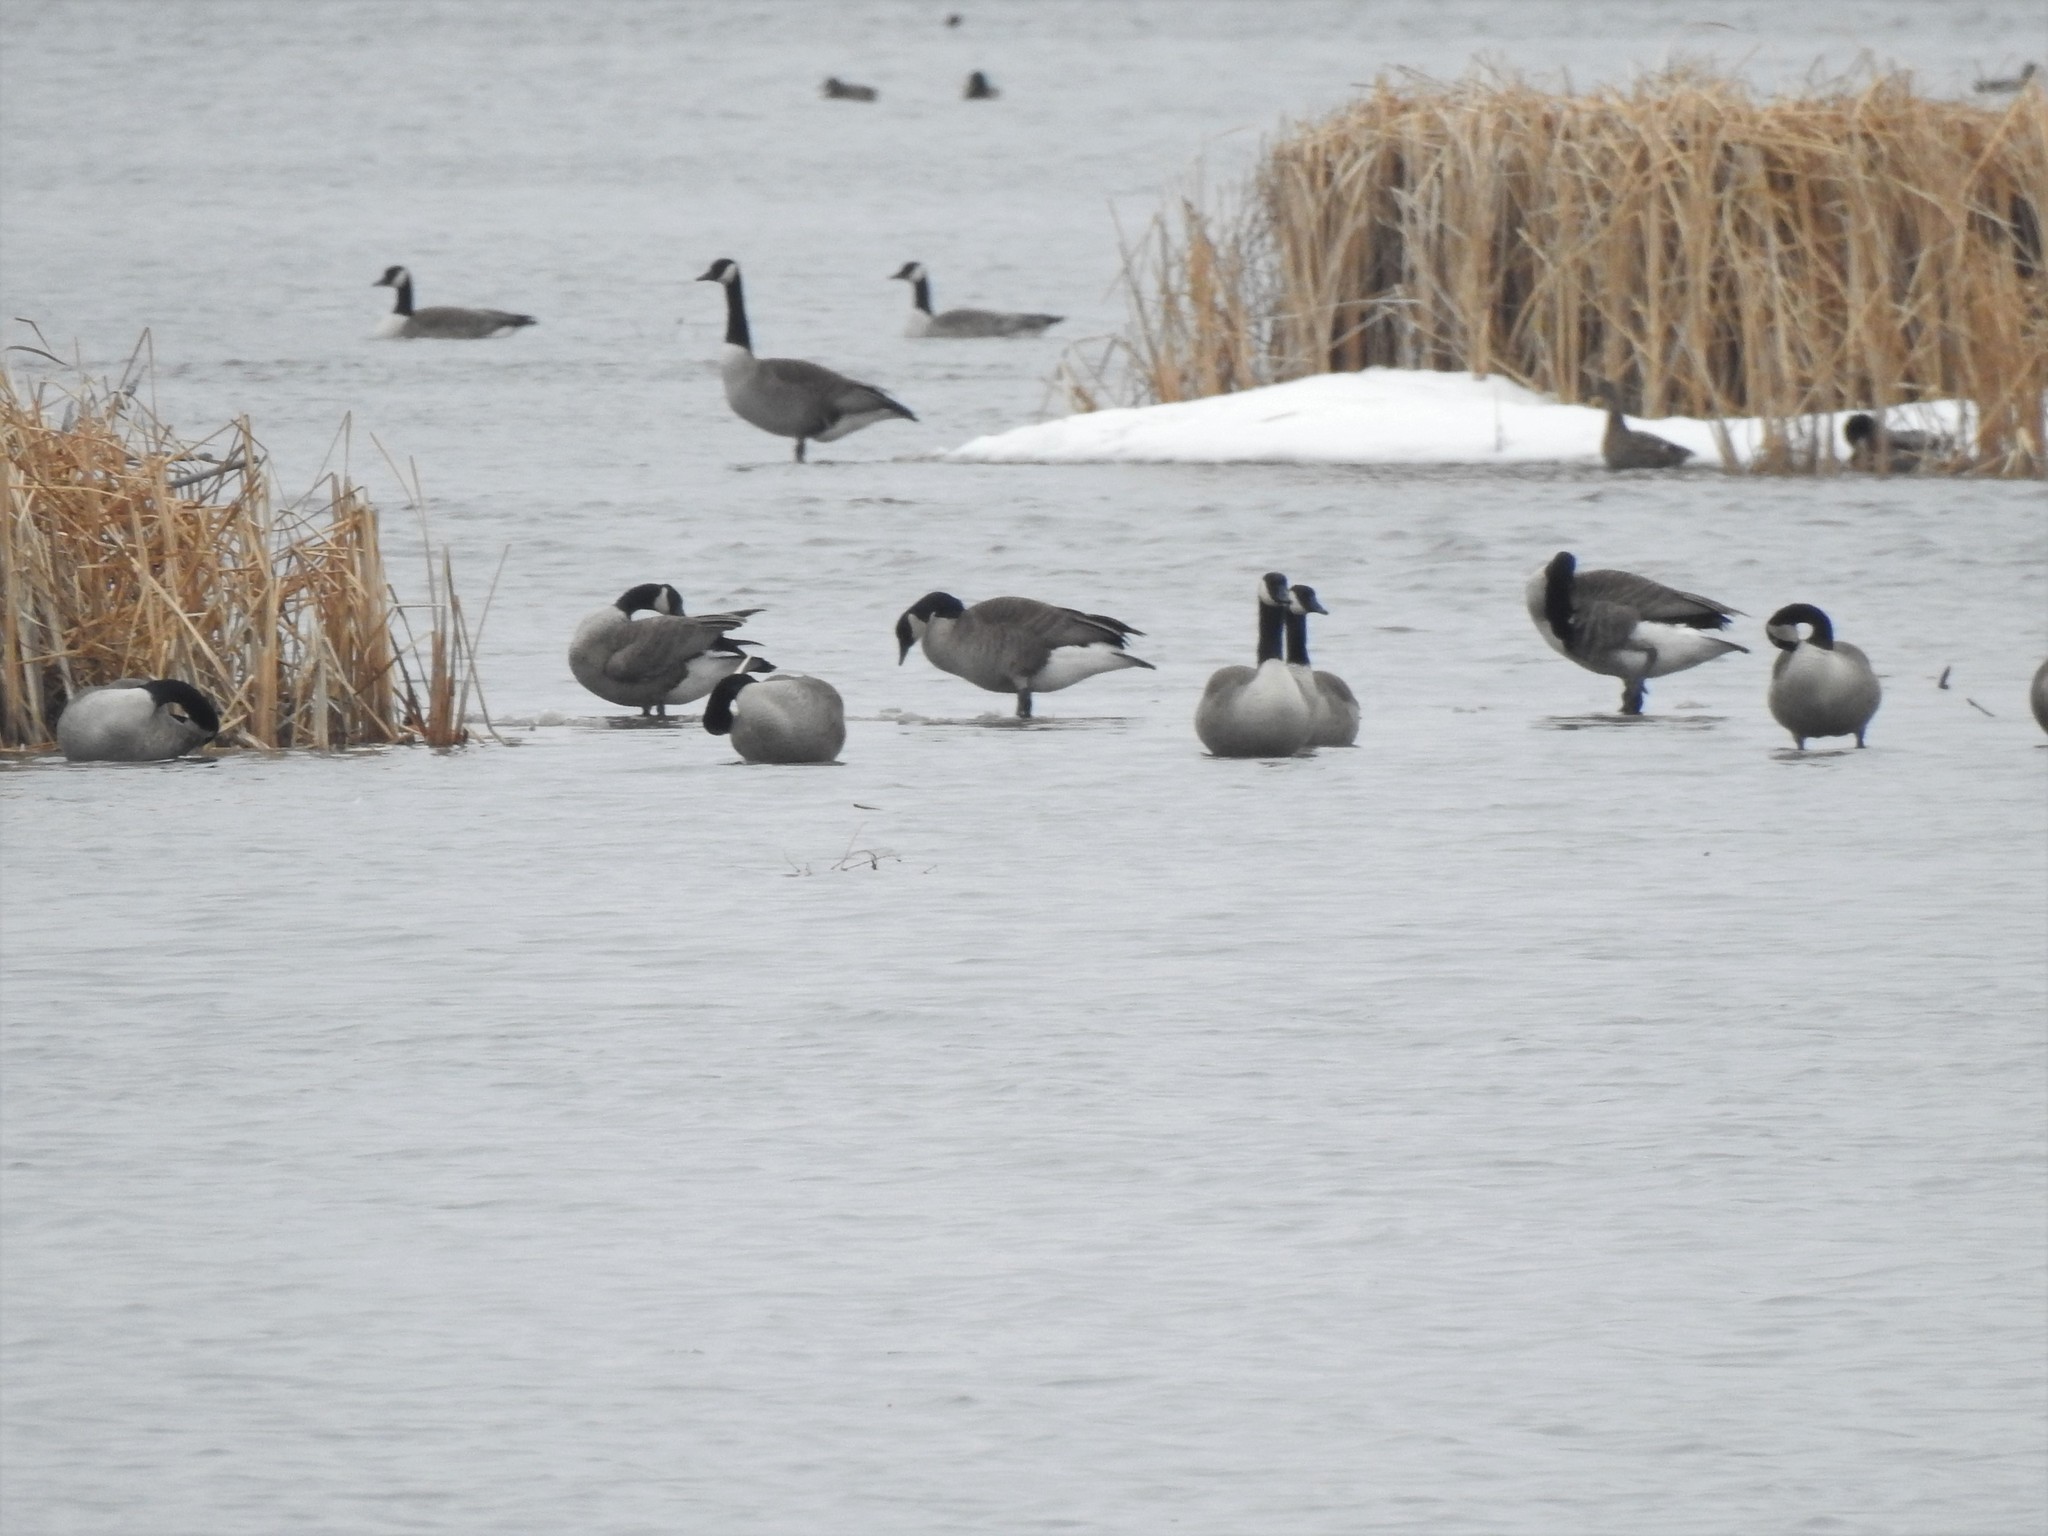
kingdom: Animalia
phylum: Chordata
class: Aves
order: Anseriformes
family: Anatidae
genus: Branta
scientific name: Branta canadensis
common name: Canada goose
